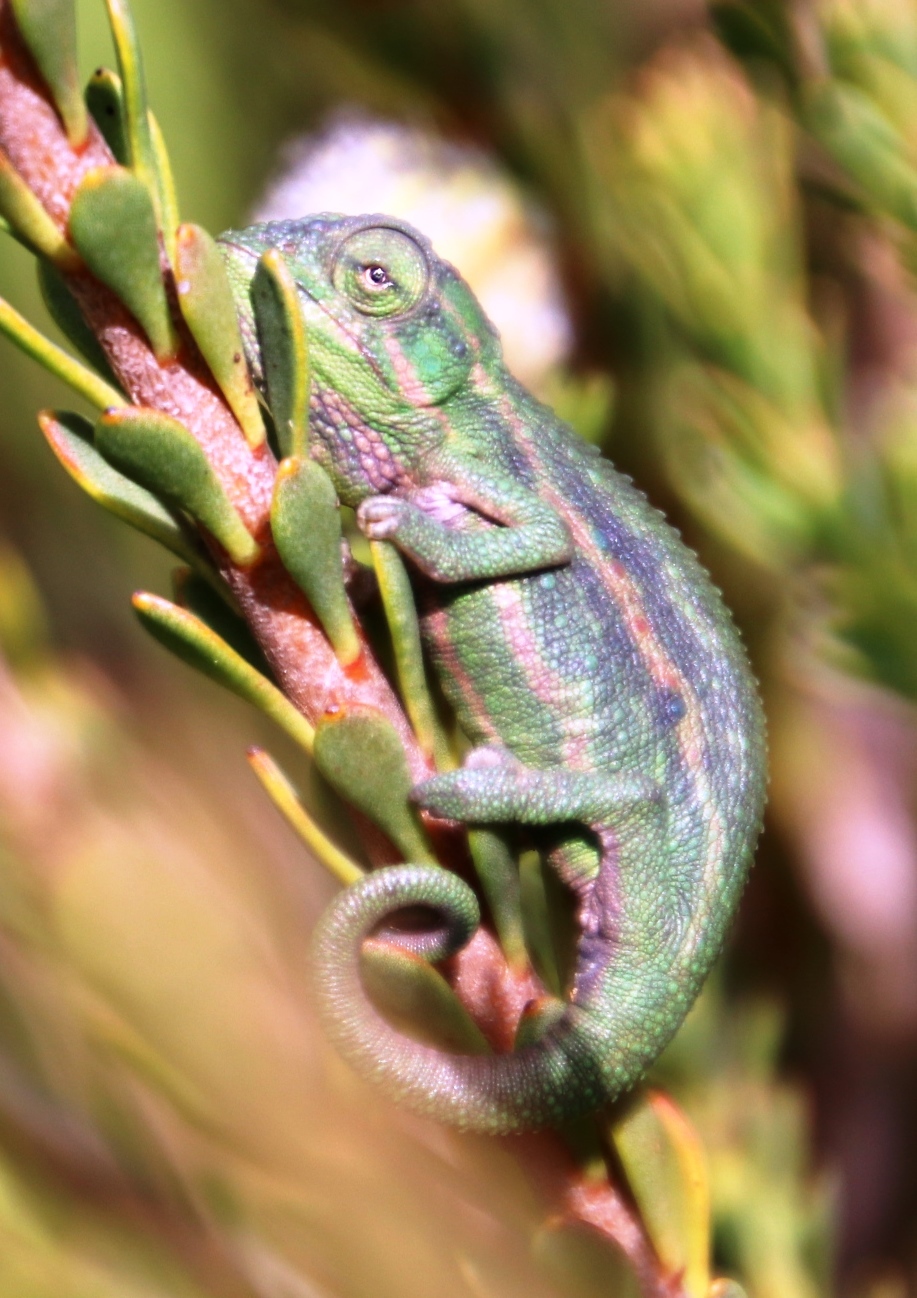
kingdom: Animalia
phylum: Chordata
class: Squamata
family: Chamaeleonidae
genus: Bradypodion
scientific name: Bradypodion pumilum
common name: Cape dwarf chameleon
